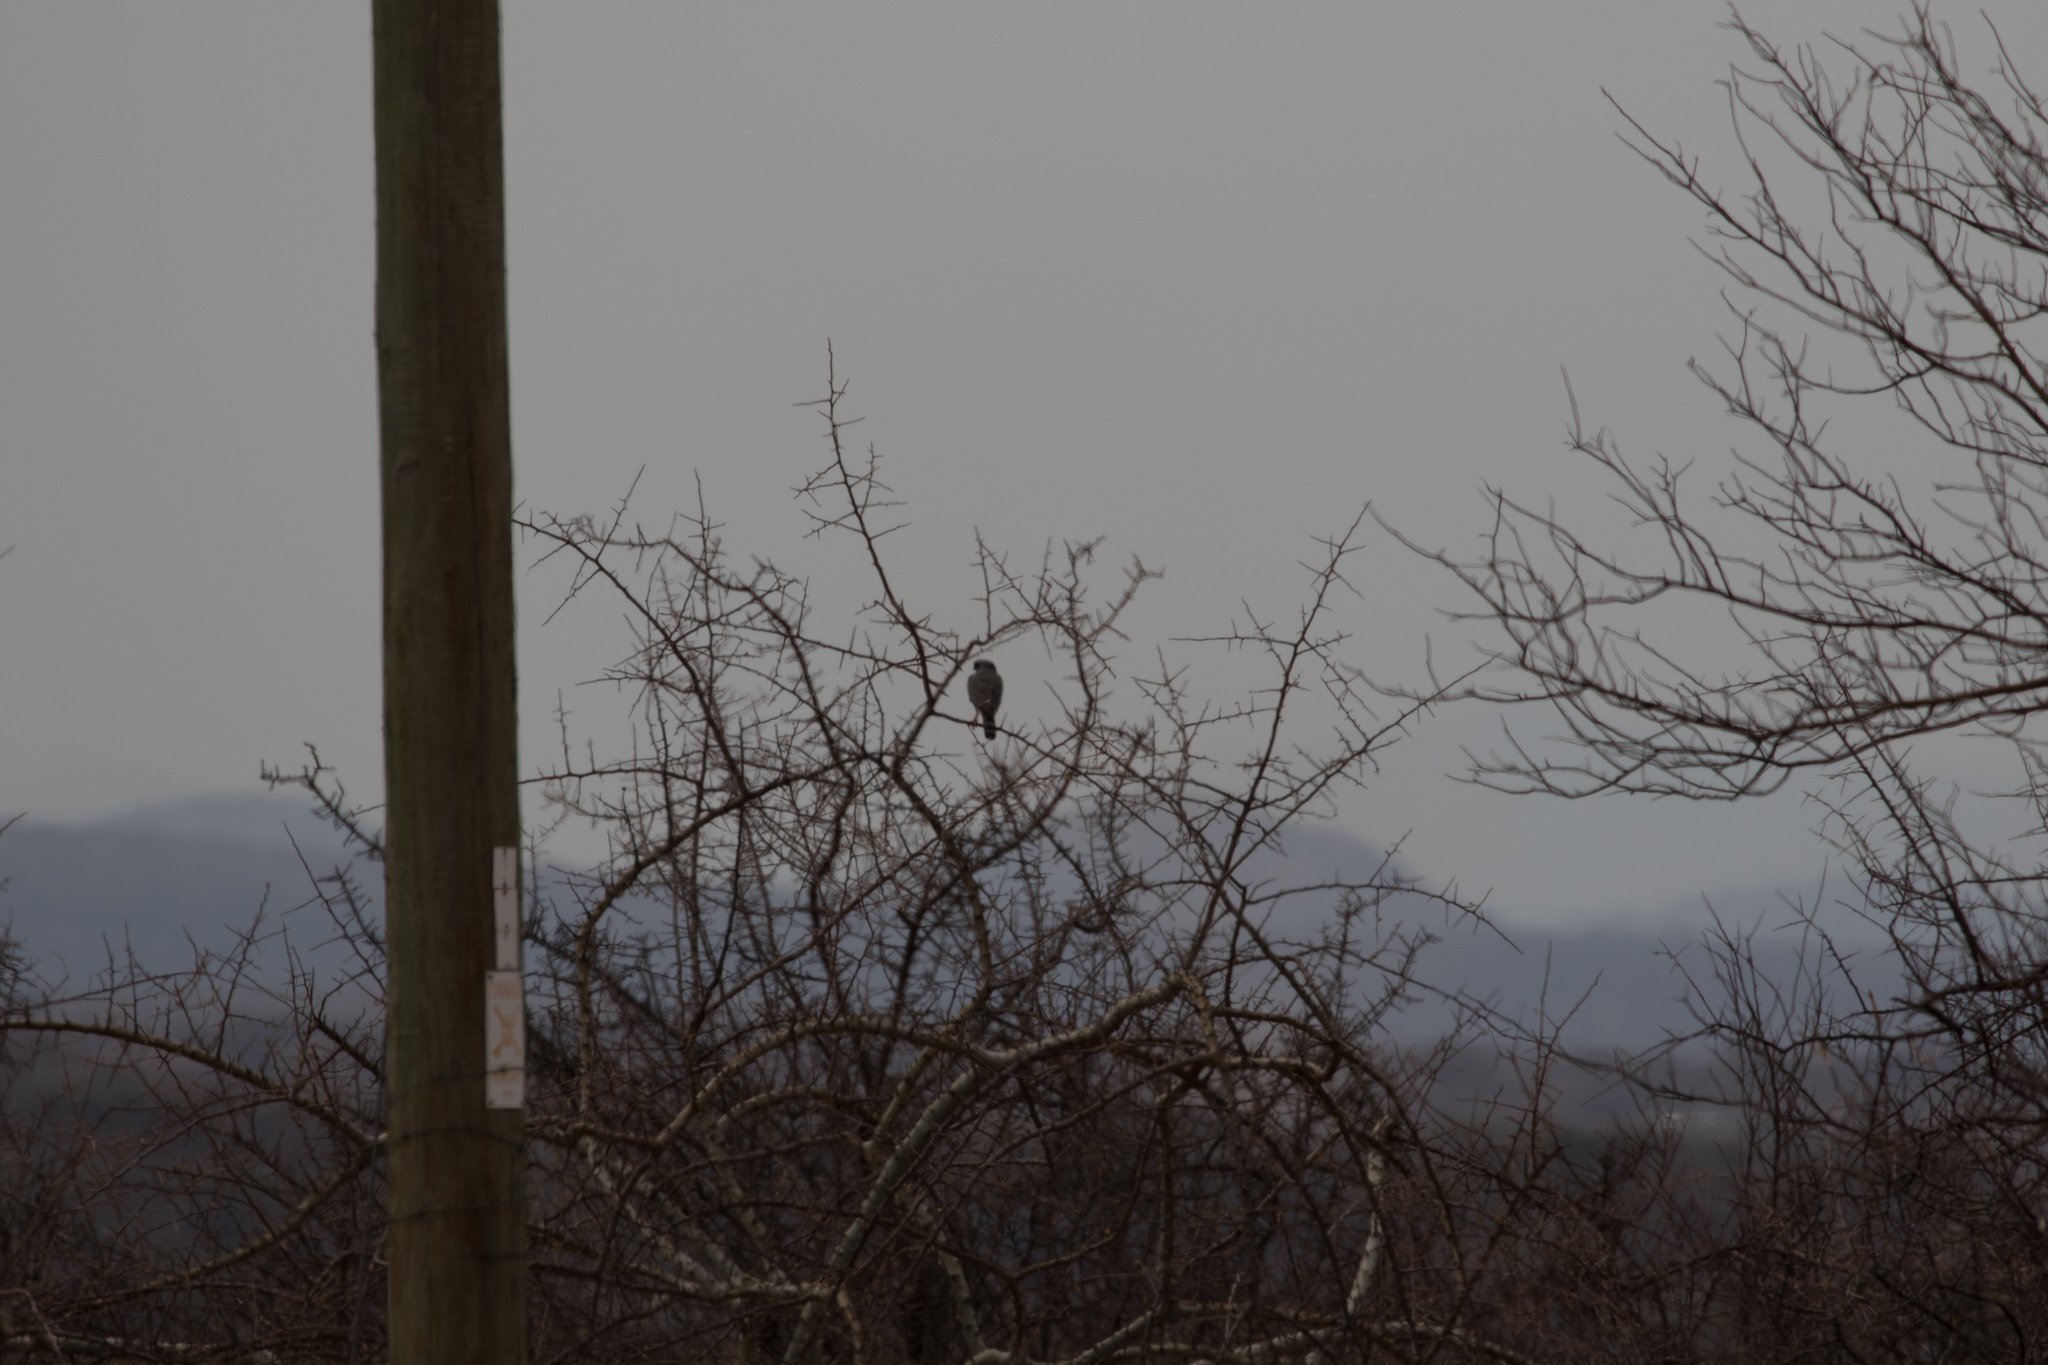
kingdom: Animalia
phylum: Chordata
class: Aves
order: Accipitriformes
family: Accipitridae
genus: Micronisus
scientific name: Micronisus gabar
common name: Gabar goshawk
